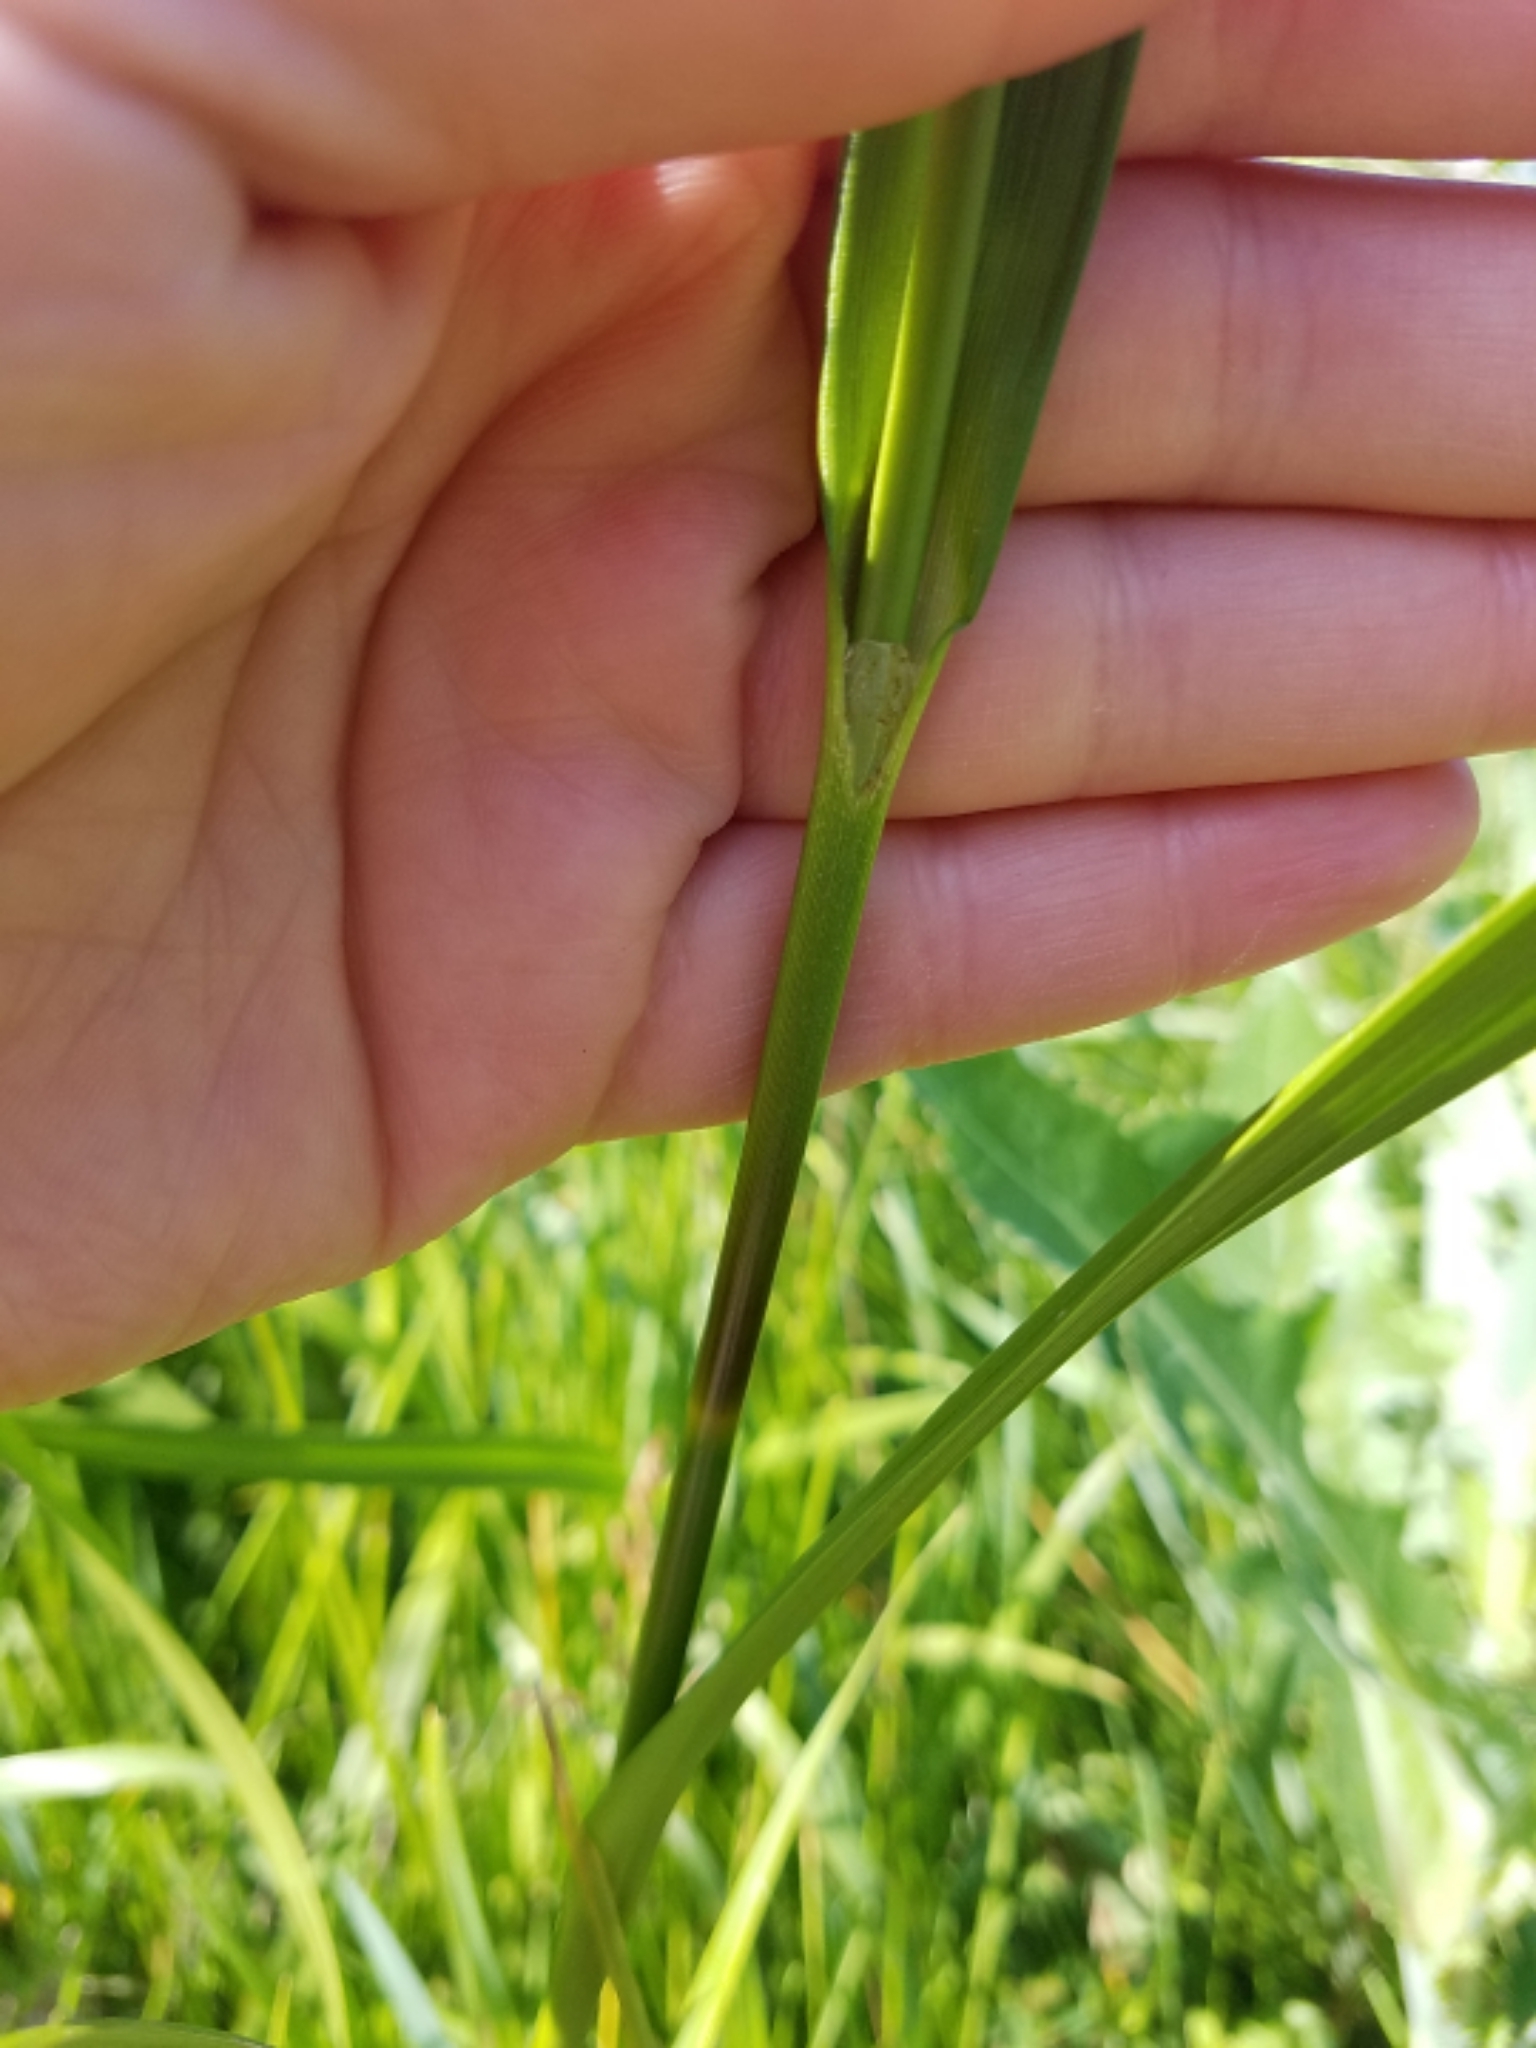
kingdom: Plantae
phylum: Tracheophyta
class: Liliopsida
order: Poales
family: Cyperaceae
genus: Scirpus
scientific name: Scirpus atrovirens
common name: Black bulrush
